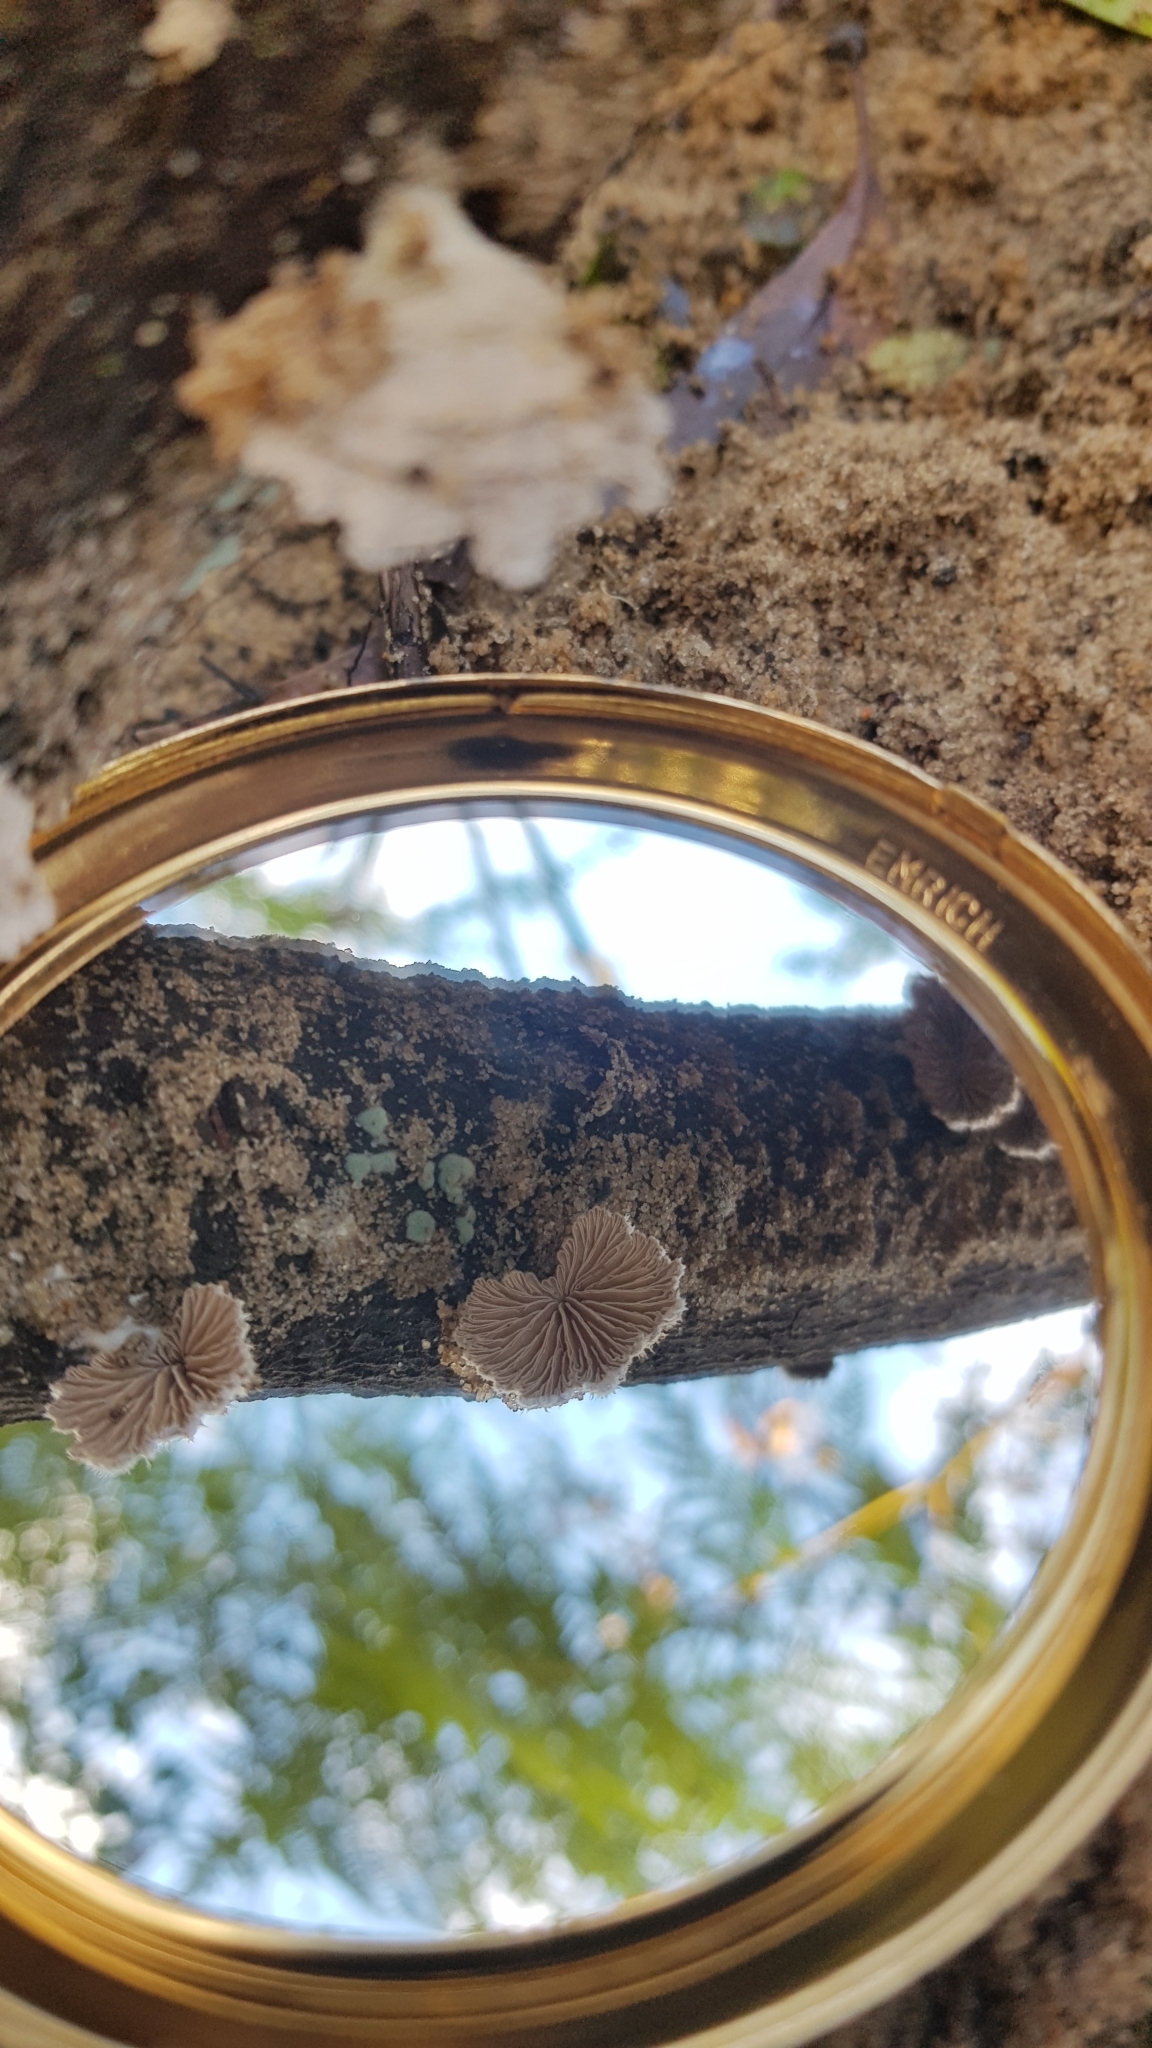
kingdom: Fungi
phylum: Basidiomycota
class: Agaricomycetes
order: Agaricales
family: Schizophyllaceae
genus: Schizophyllum
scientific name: Schizophyllum commune
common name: Common porecrust
